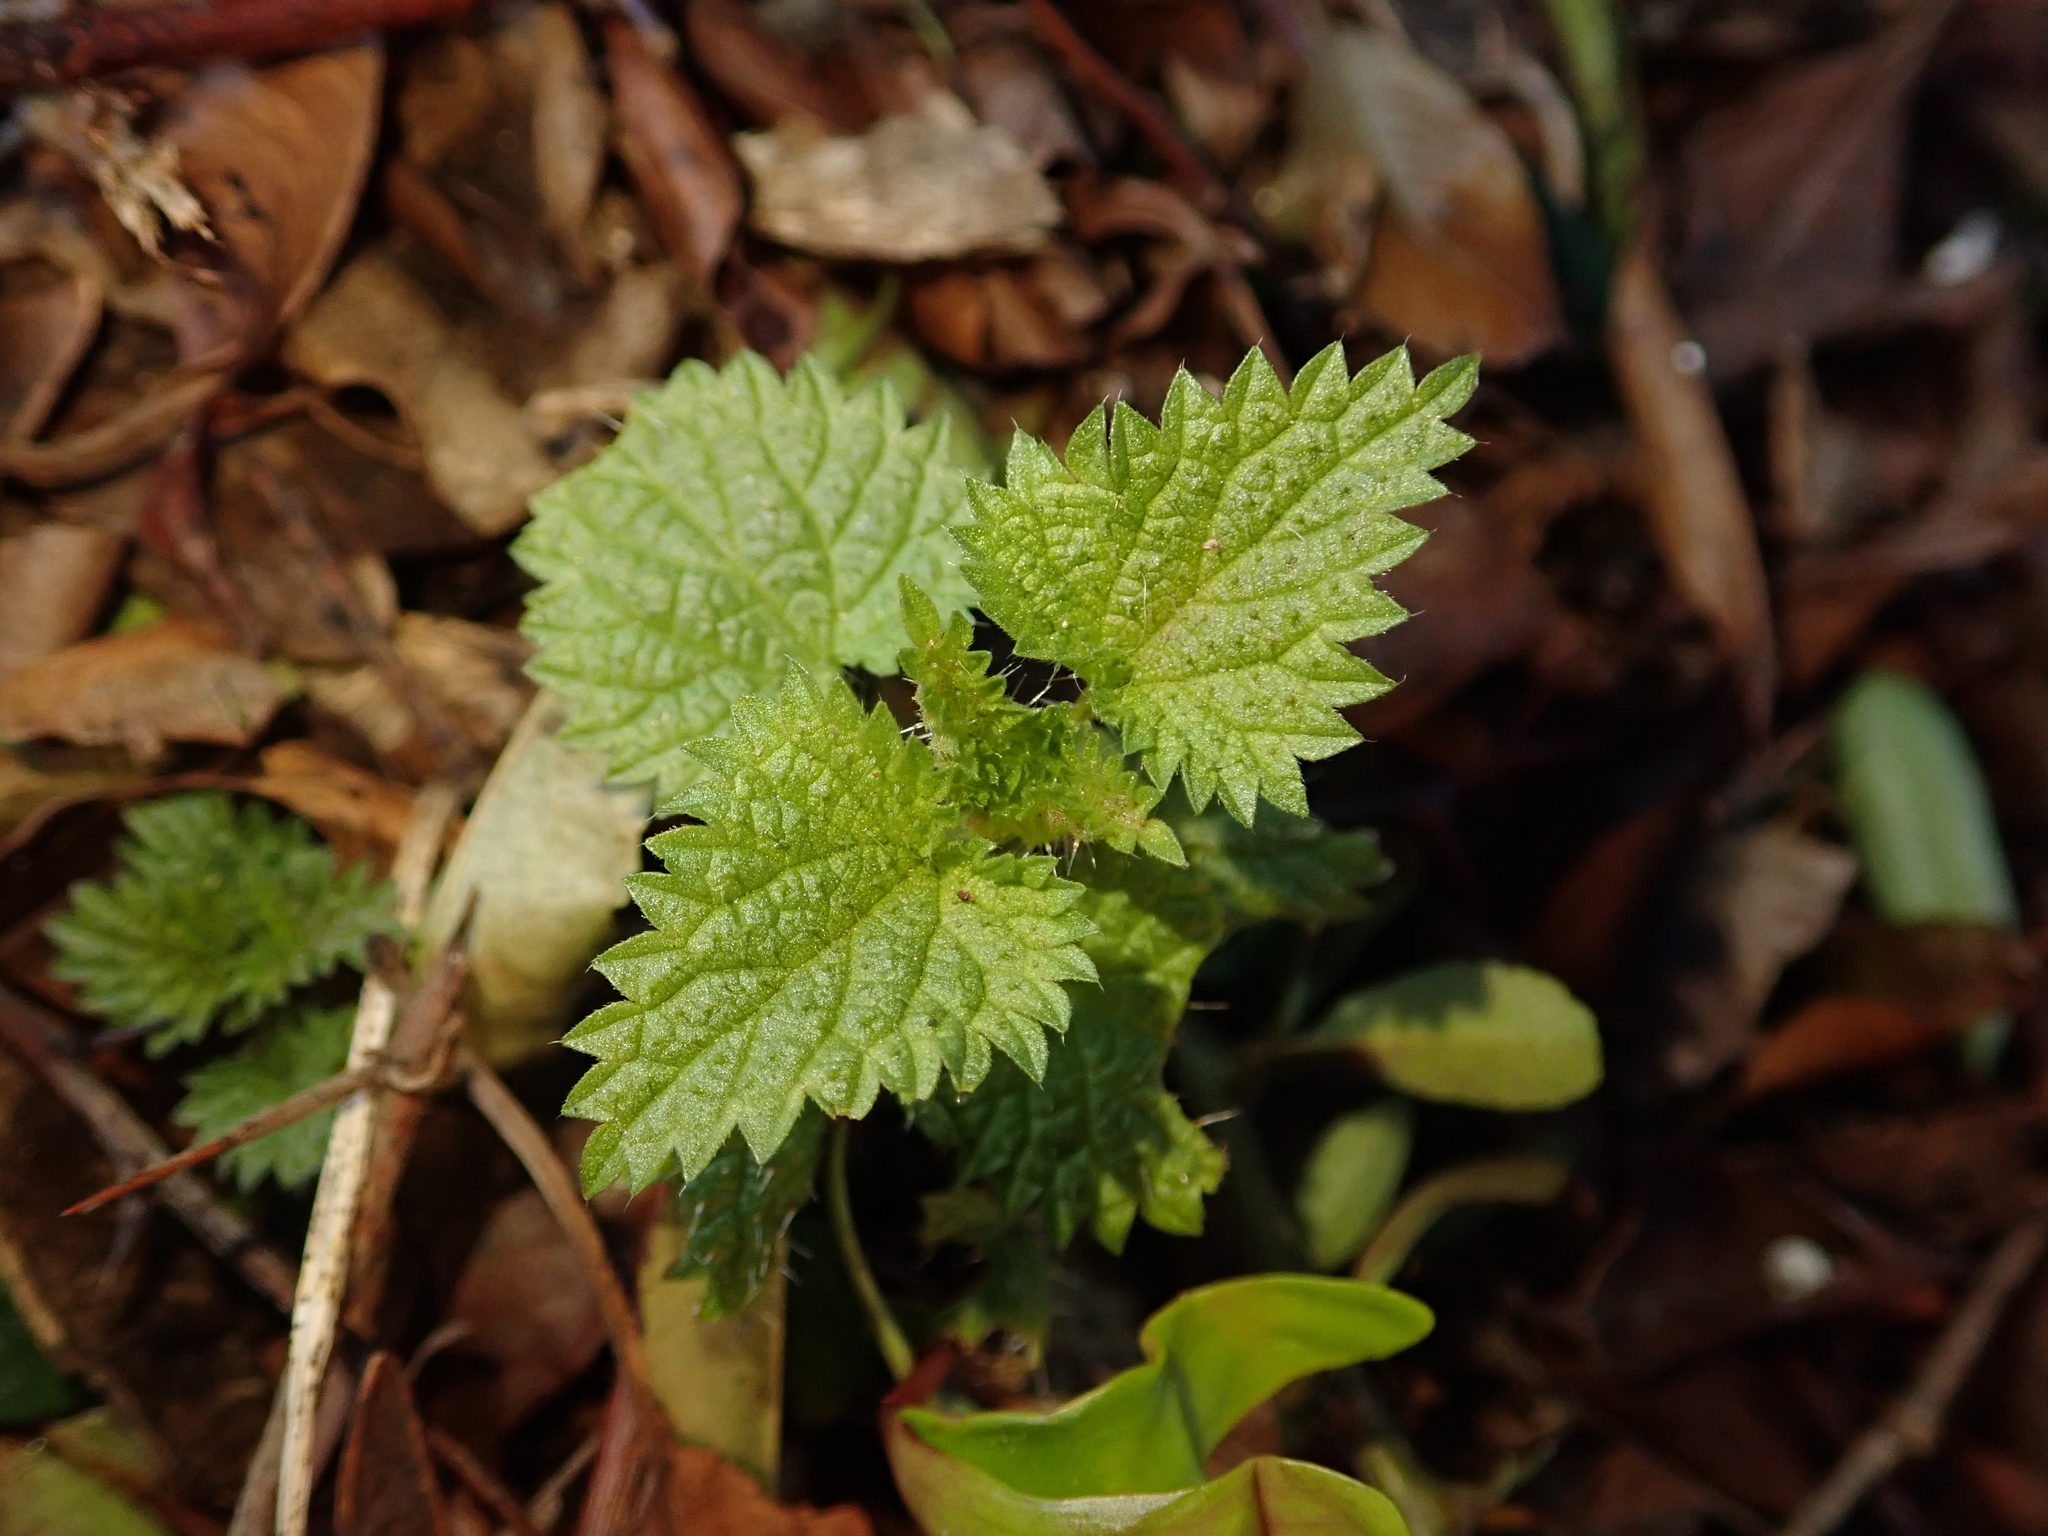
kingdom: Plantae
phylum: Tracheophyta
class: Magnoliopsida
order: Rosales
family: Urticaceae
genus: Urtica
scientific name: Urtica dioica
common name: Common nettle
